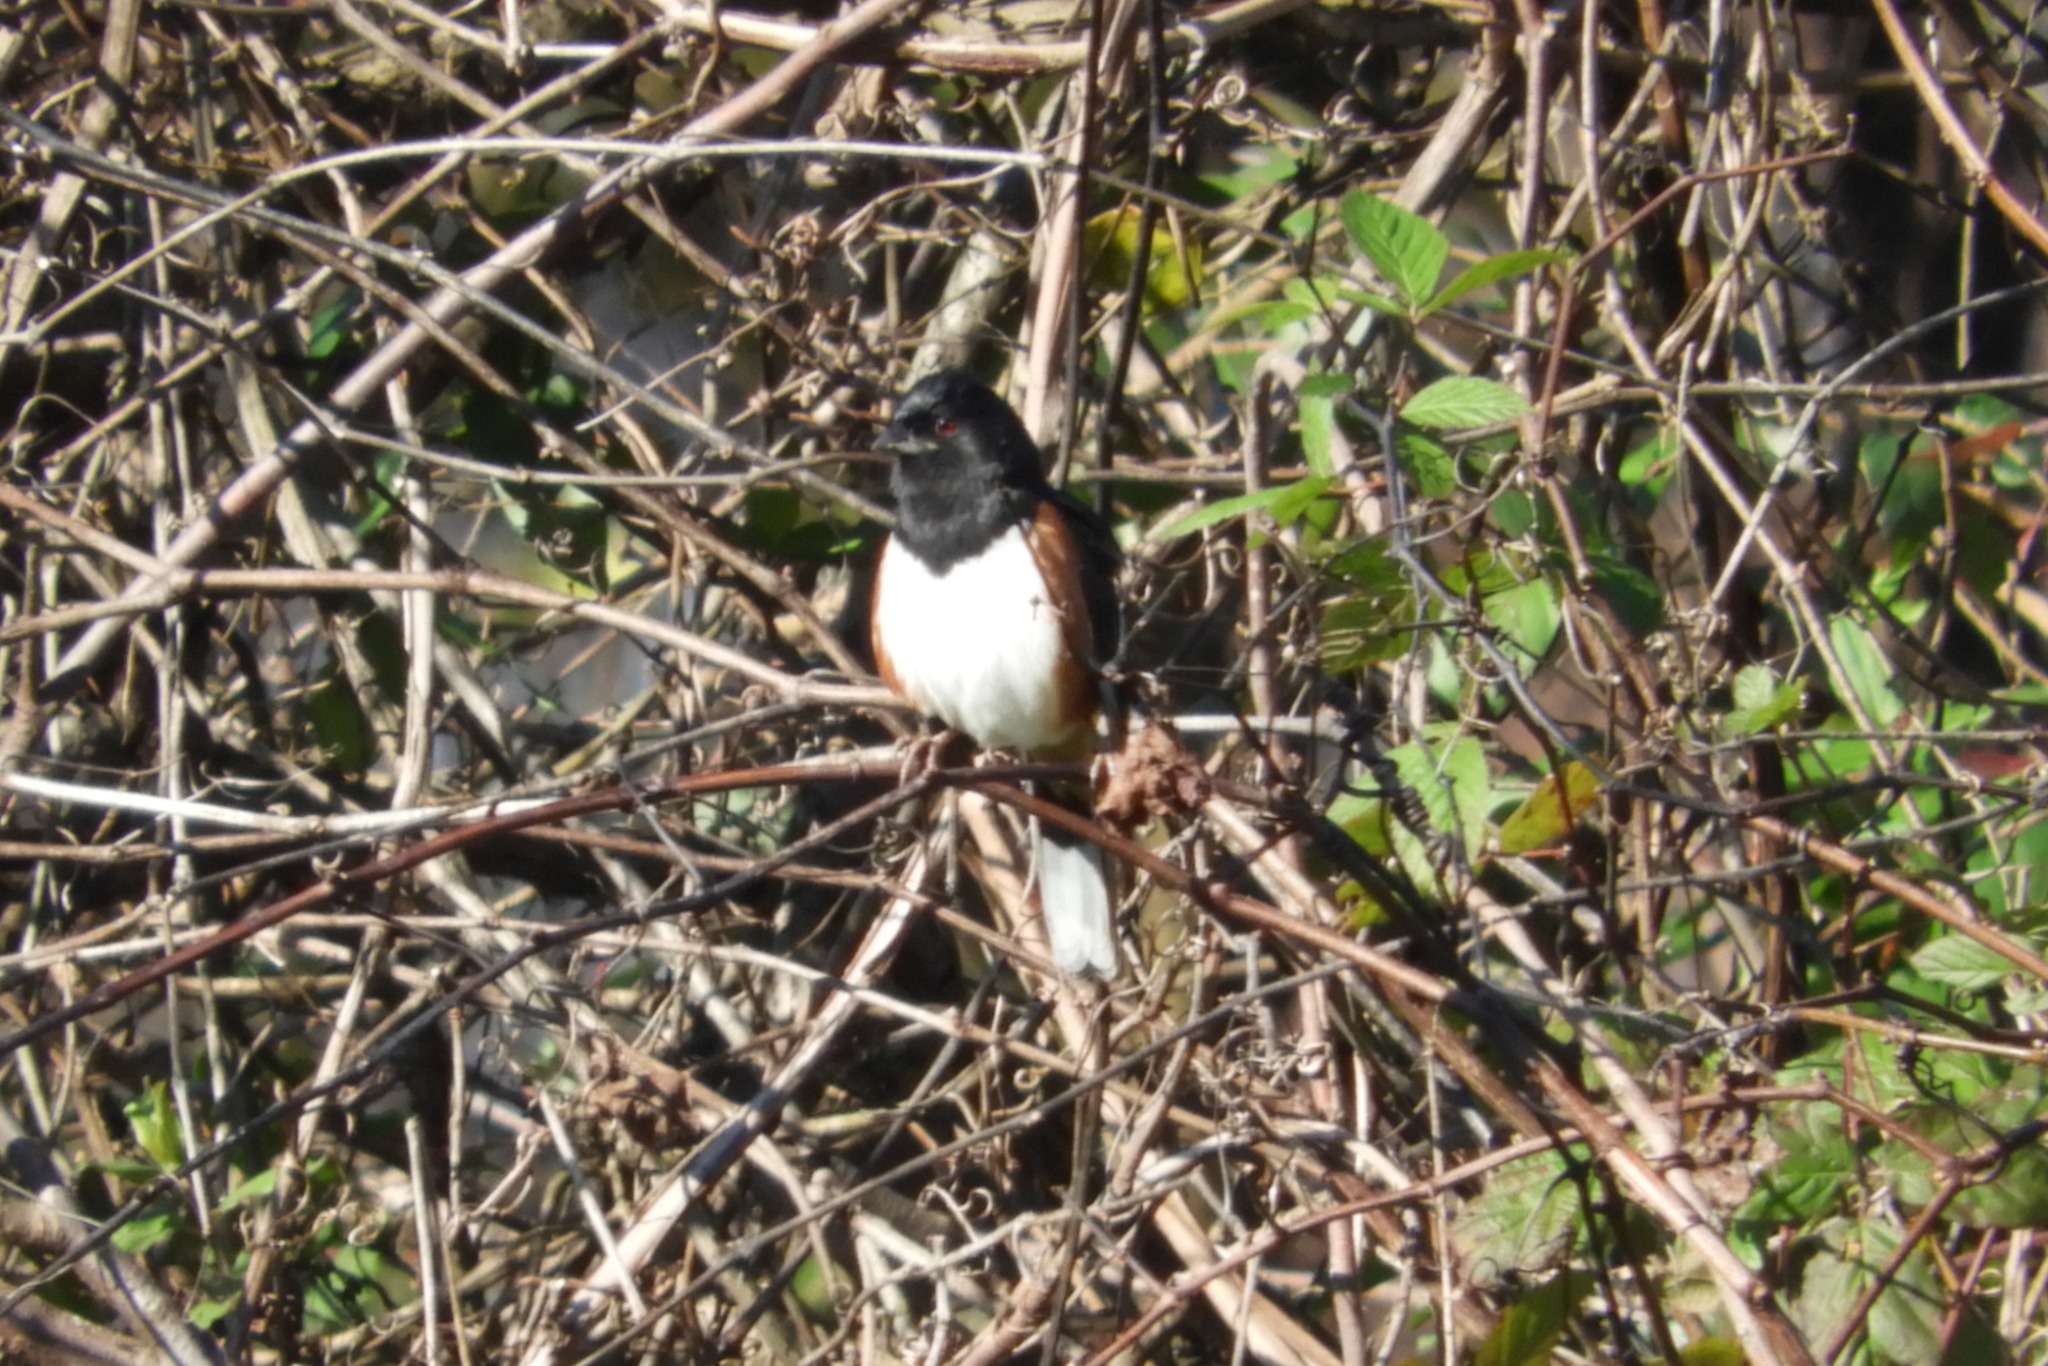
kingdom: Animalia
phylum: Chordata
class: Aves
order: Passeriformes
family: Passerellidae
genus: Pipilo
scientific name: Pipilo erythrophthalmus
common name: Eastern towhee
